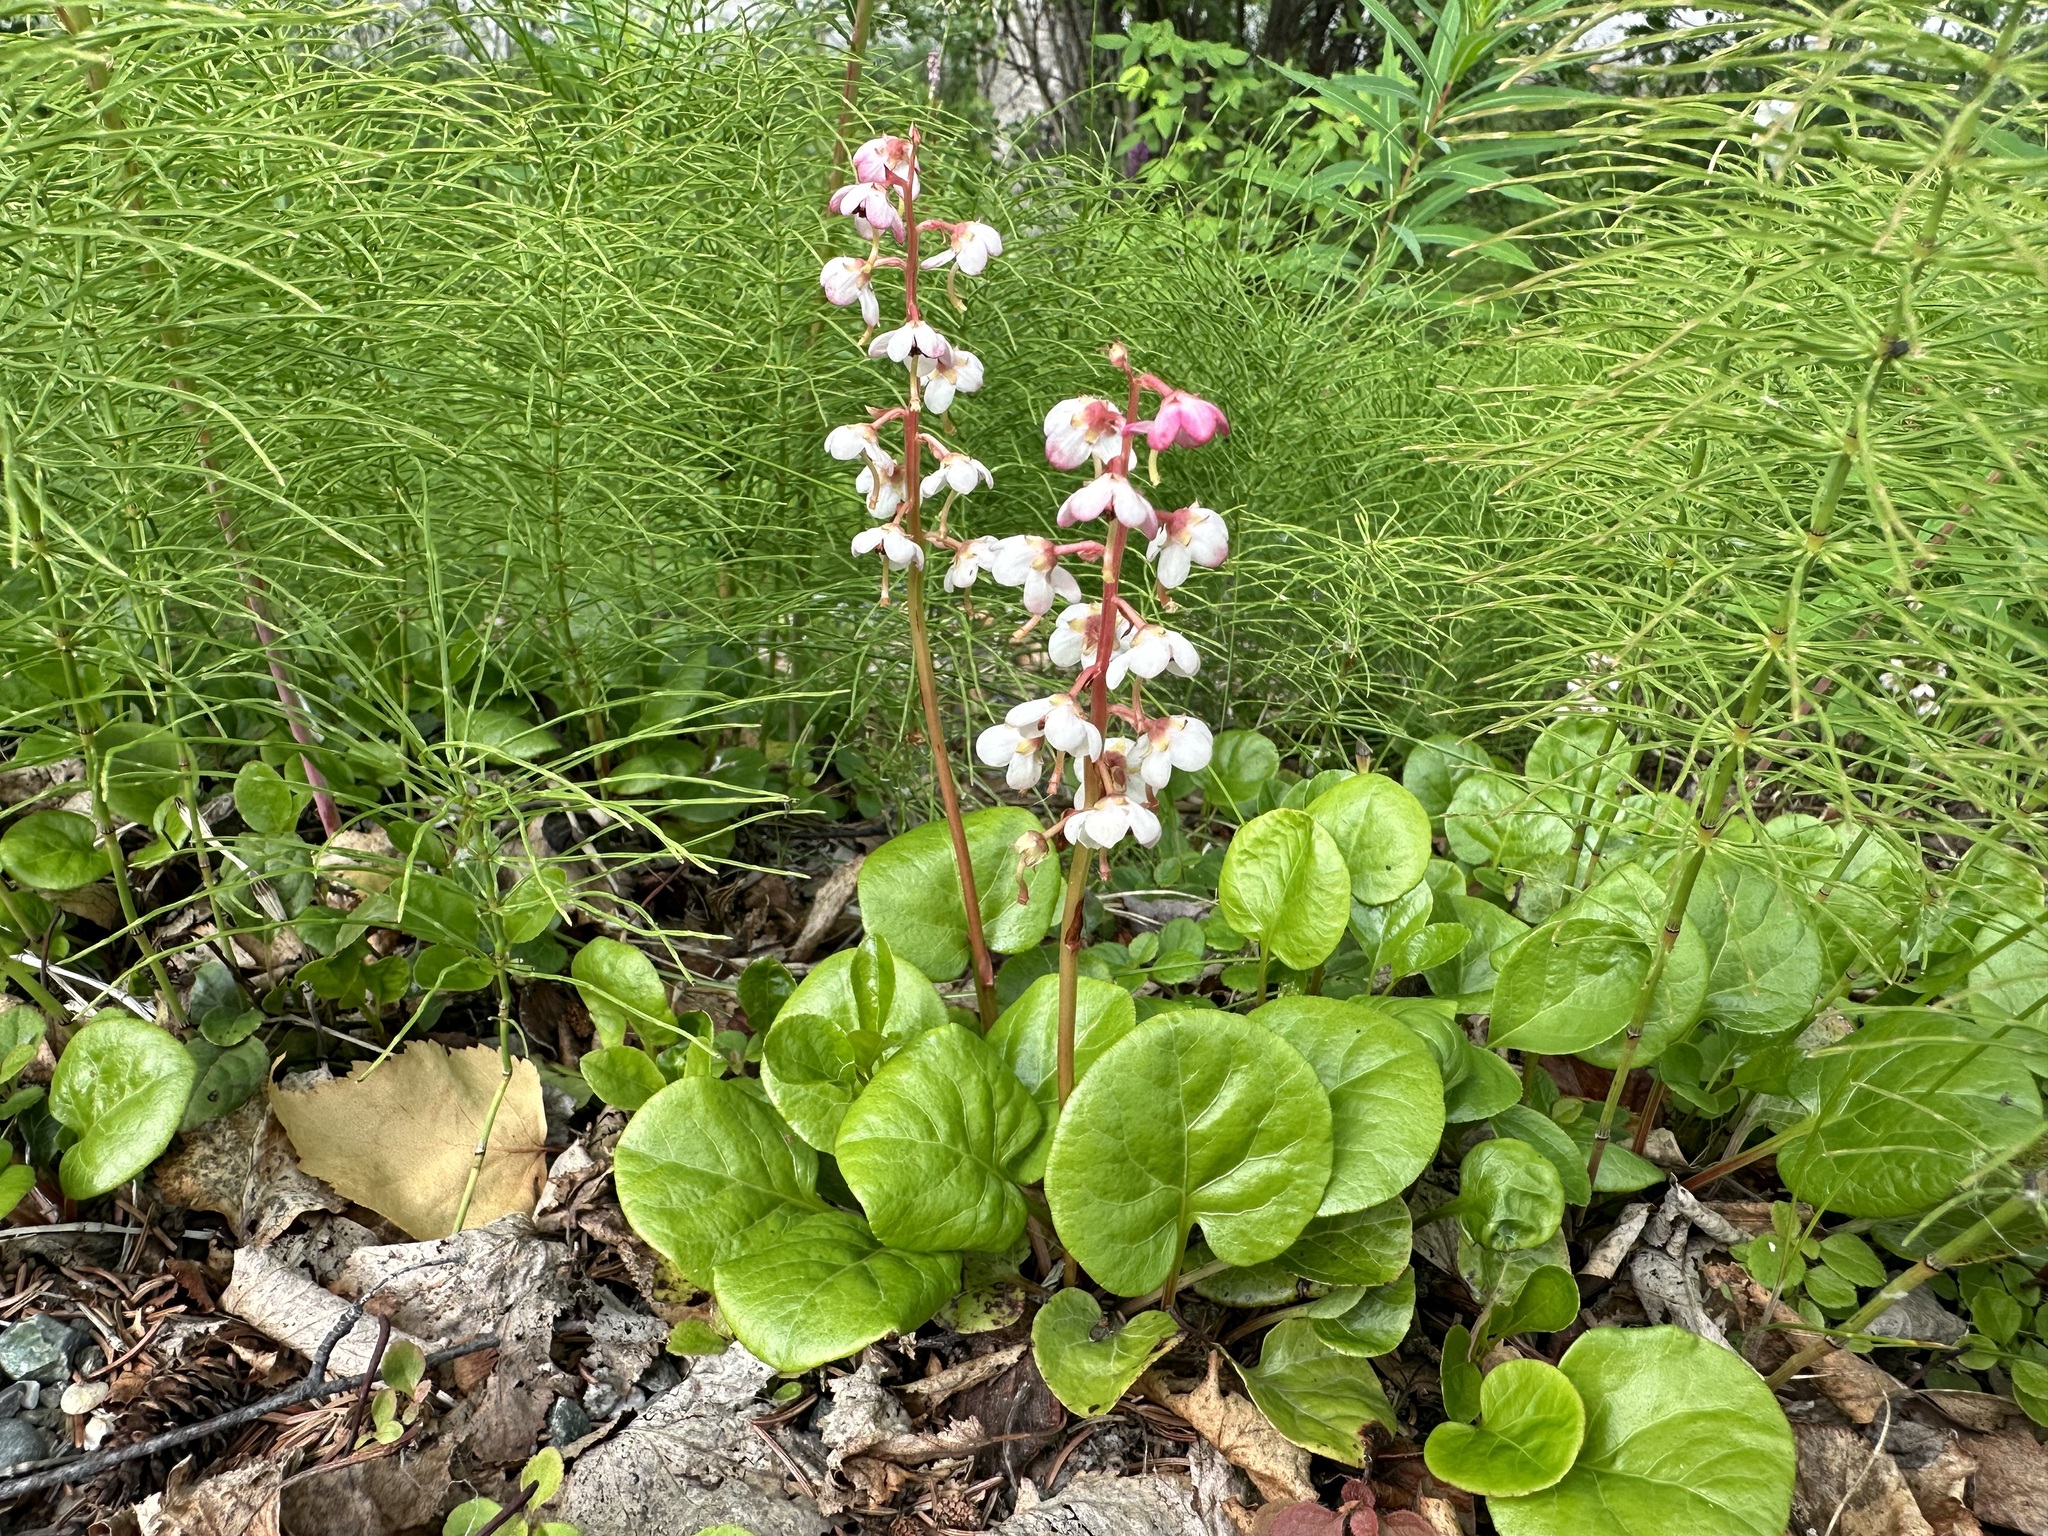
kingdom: Plantae
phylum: Tracheophyta
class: Magnoliopsida
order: Ericales
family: Ericaceae
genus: Pyrola
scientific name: Pyrola asarifolia
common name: Bog wintergreen
